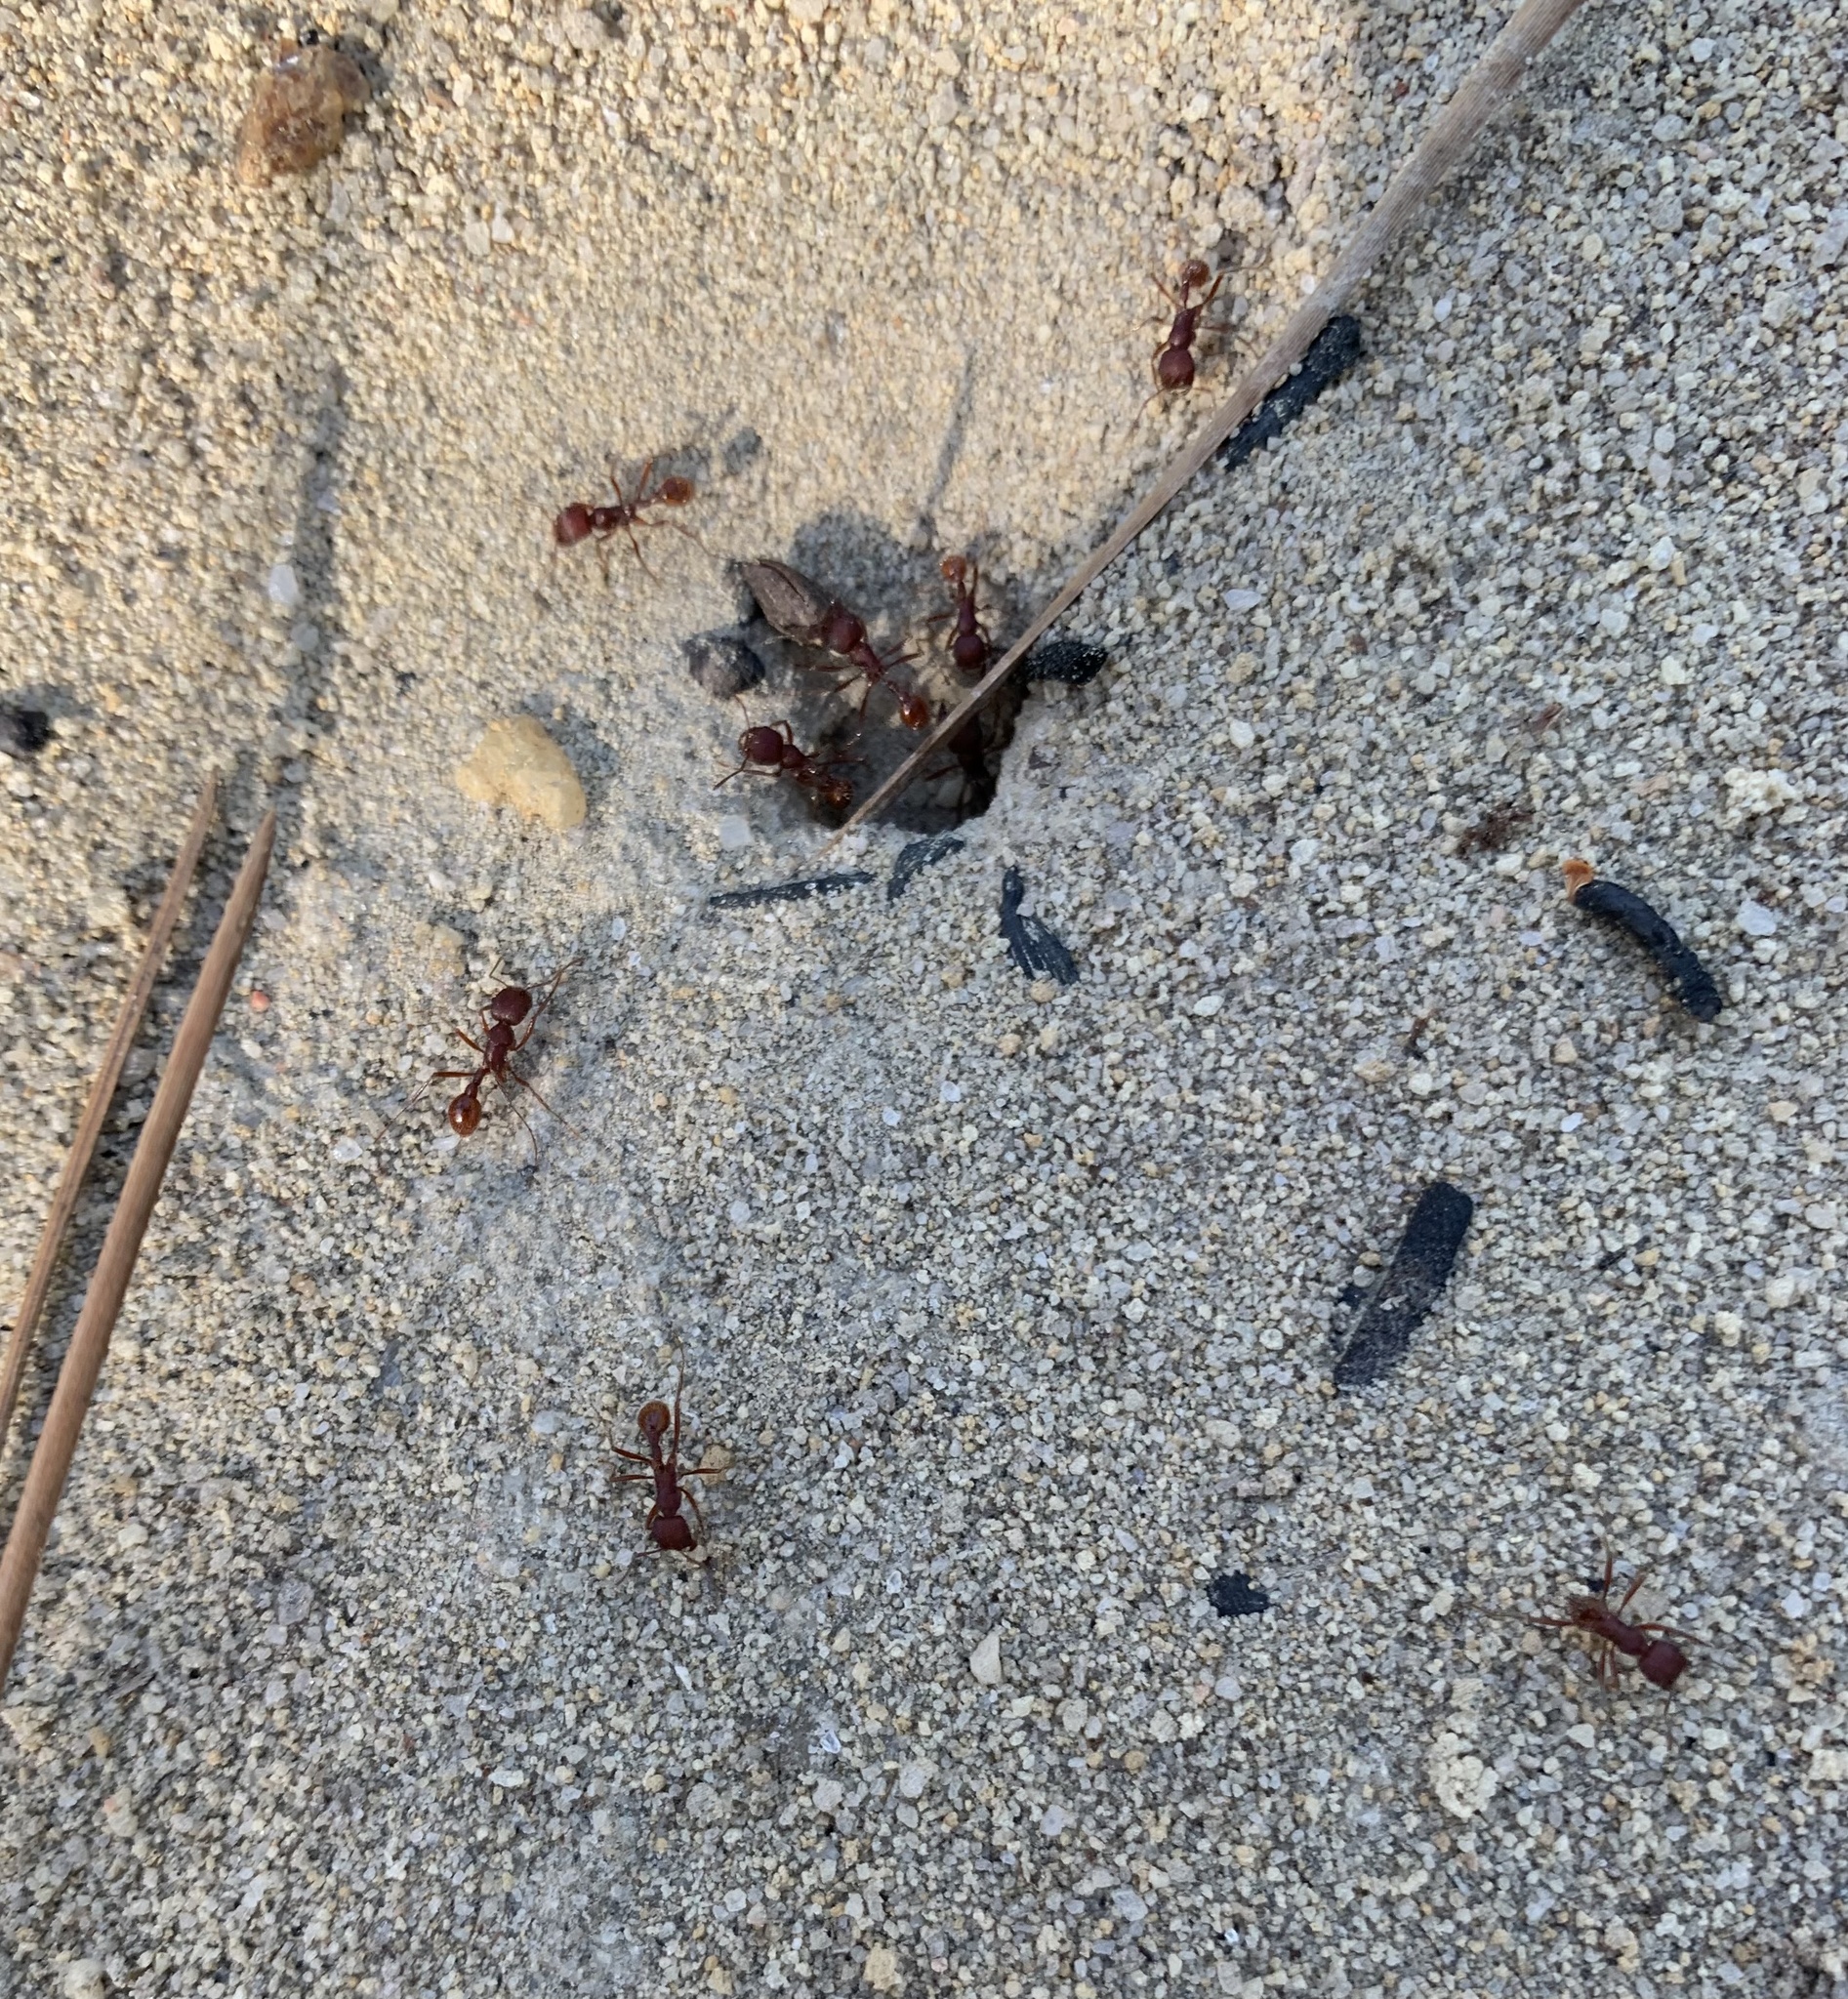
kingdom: Animalia
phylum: Arthropoda
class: Insecta
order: Hymenoptera
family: Formicidae
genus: Pogonomyrmex
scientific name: Pogonomyrmex badius
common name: Florida harvester ant
